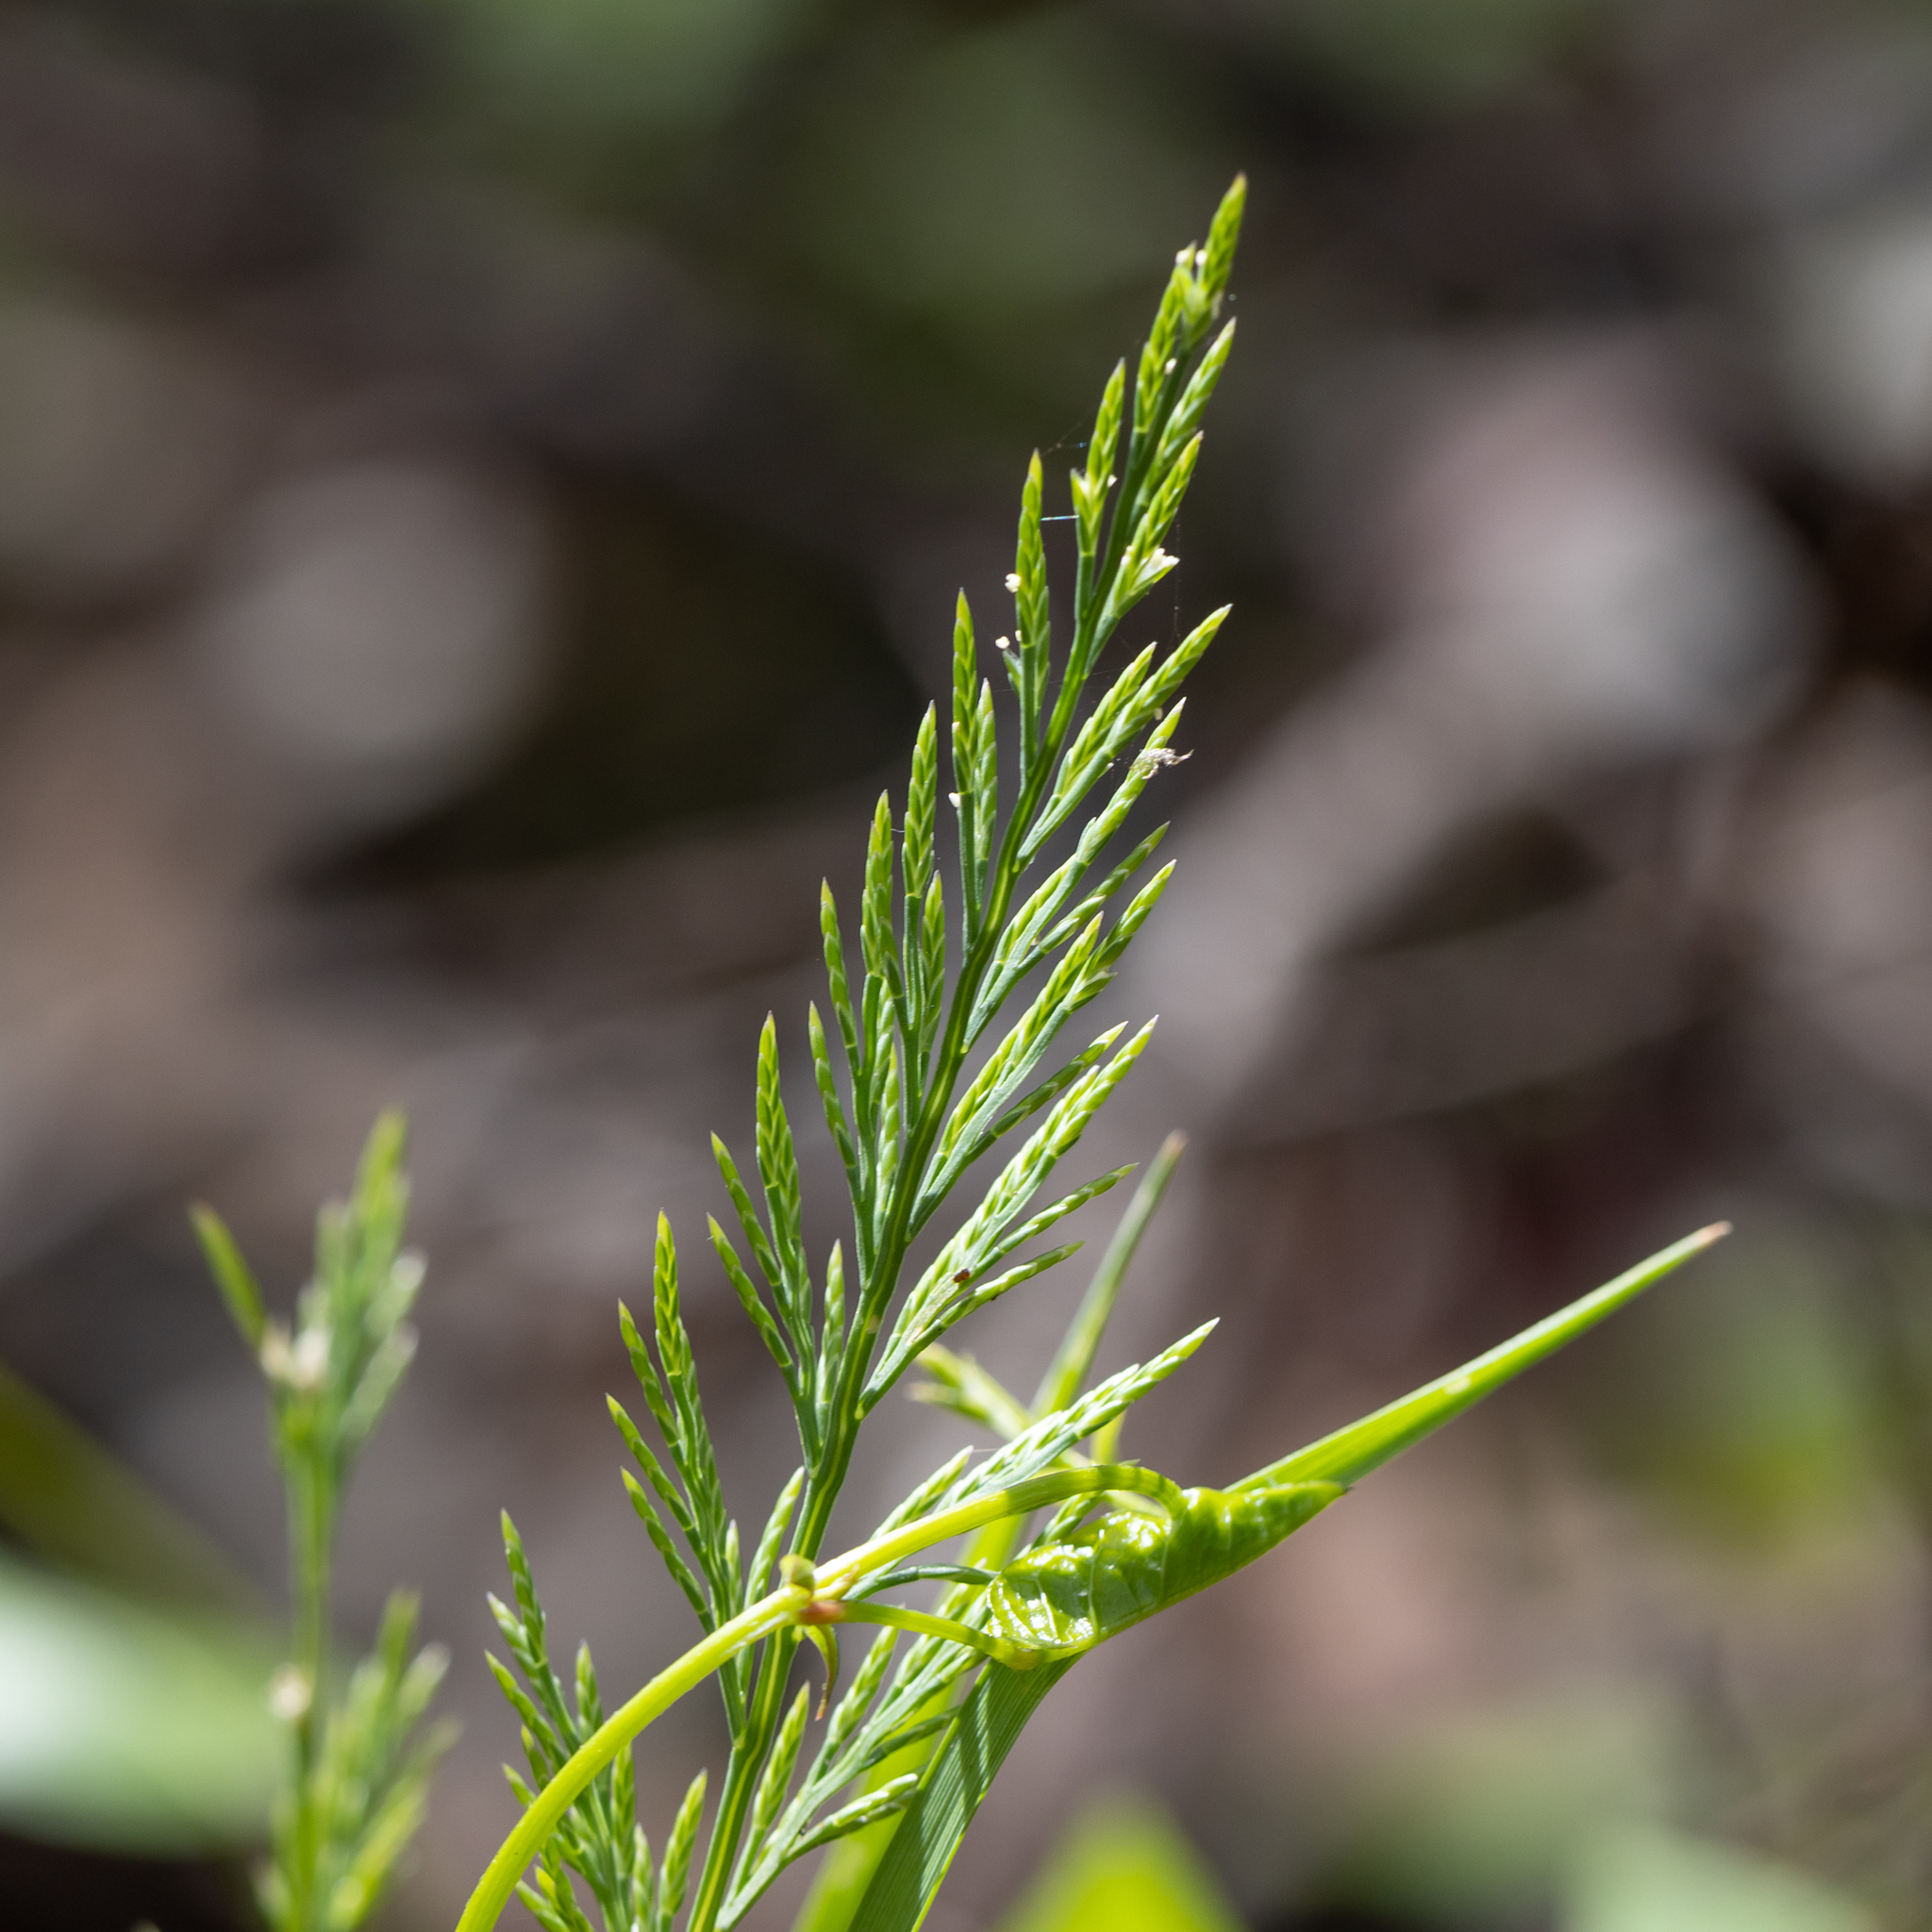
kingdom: Plantae
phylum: Tracheophyta
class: Liliopsida
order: Poales
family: Poaceae
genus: Catapodium
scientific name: Catapodium rigidum
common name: Fern-grass
